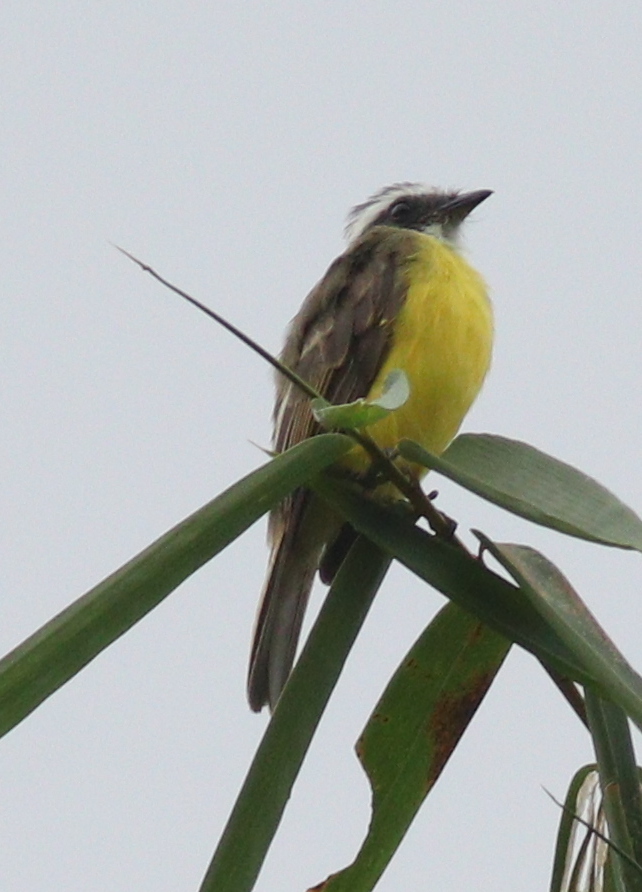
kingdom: Animalia
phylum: Chordata
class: Aves
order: Passeriformes
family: Tyrannidae
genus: Myiozetetes
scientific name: Myiozetetes similis
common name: Social flycatcher
